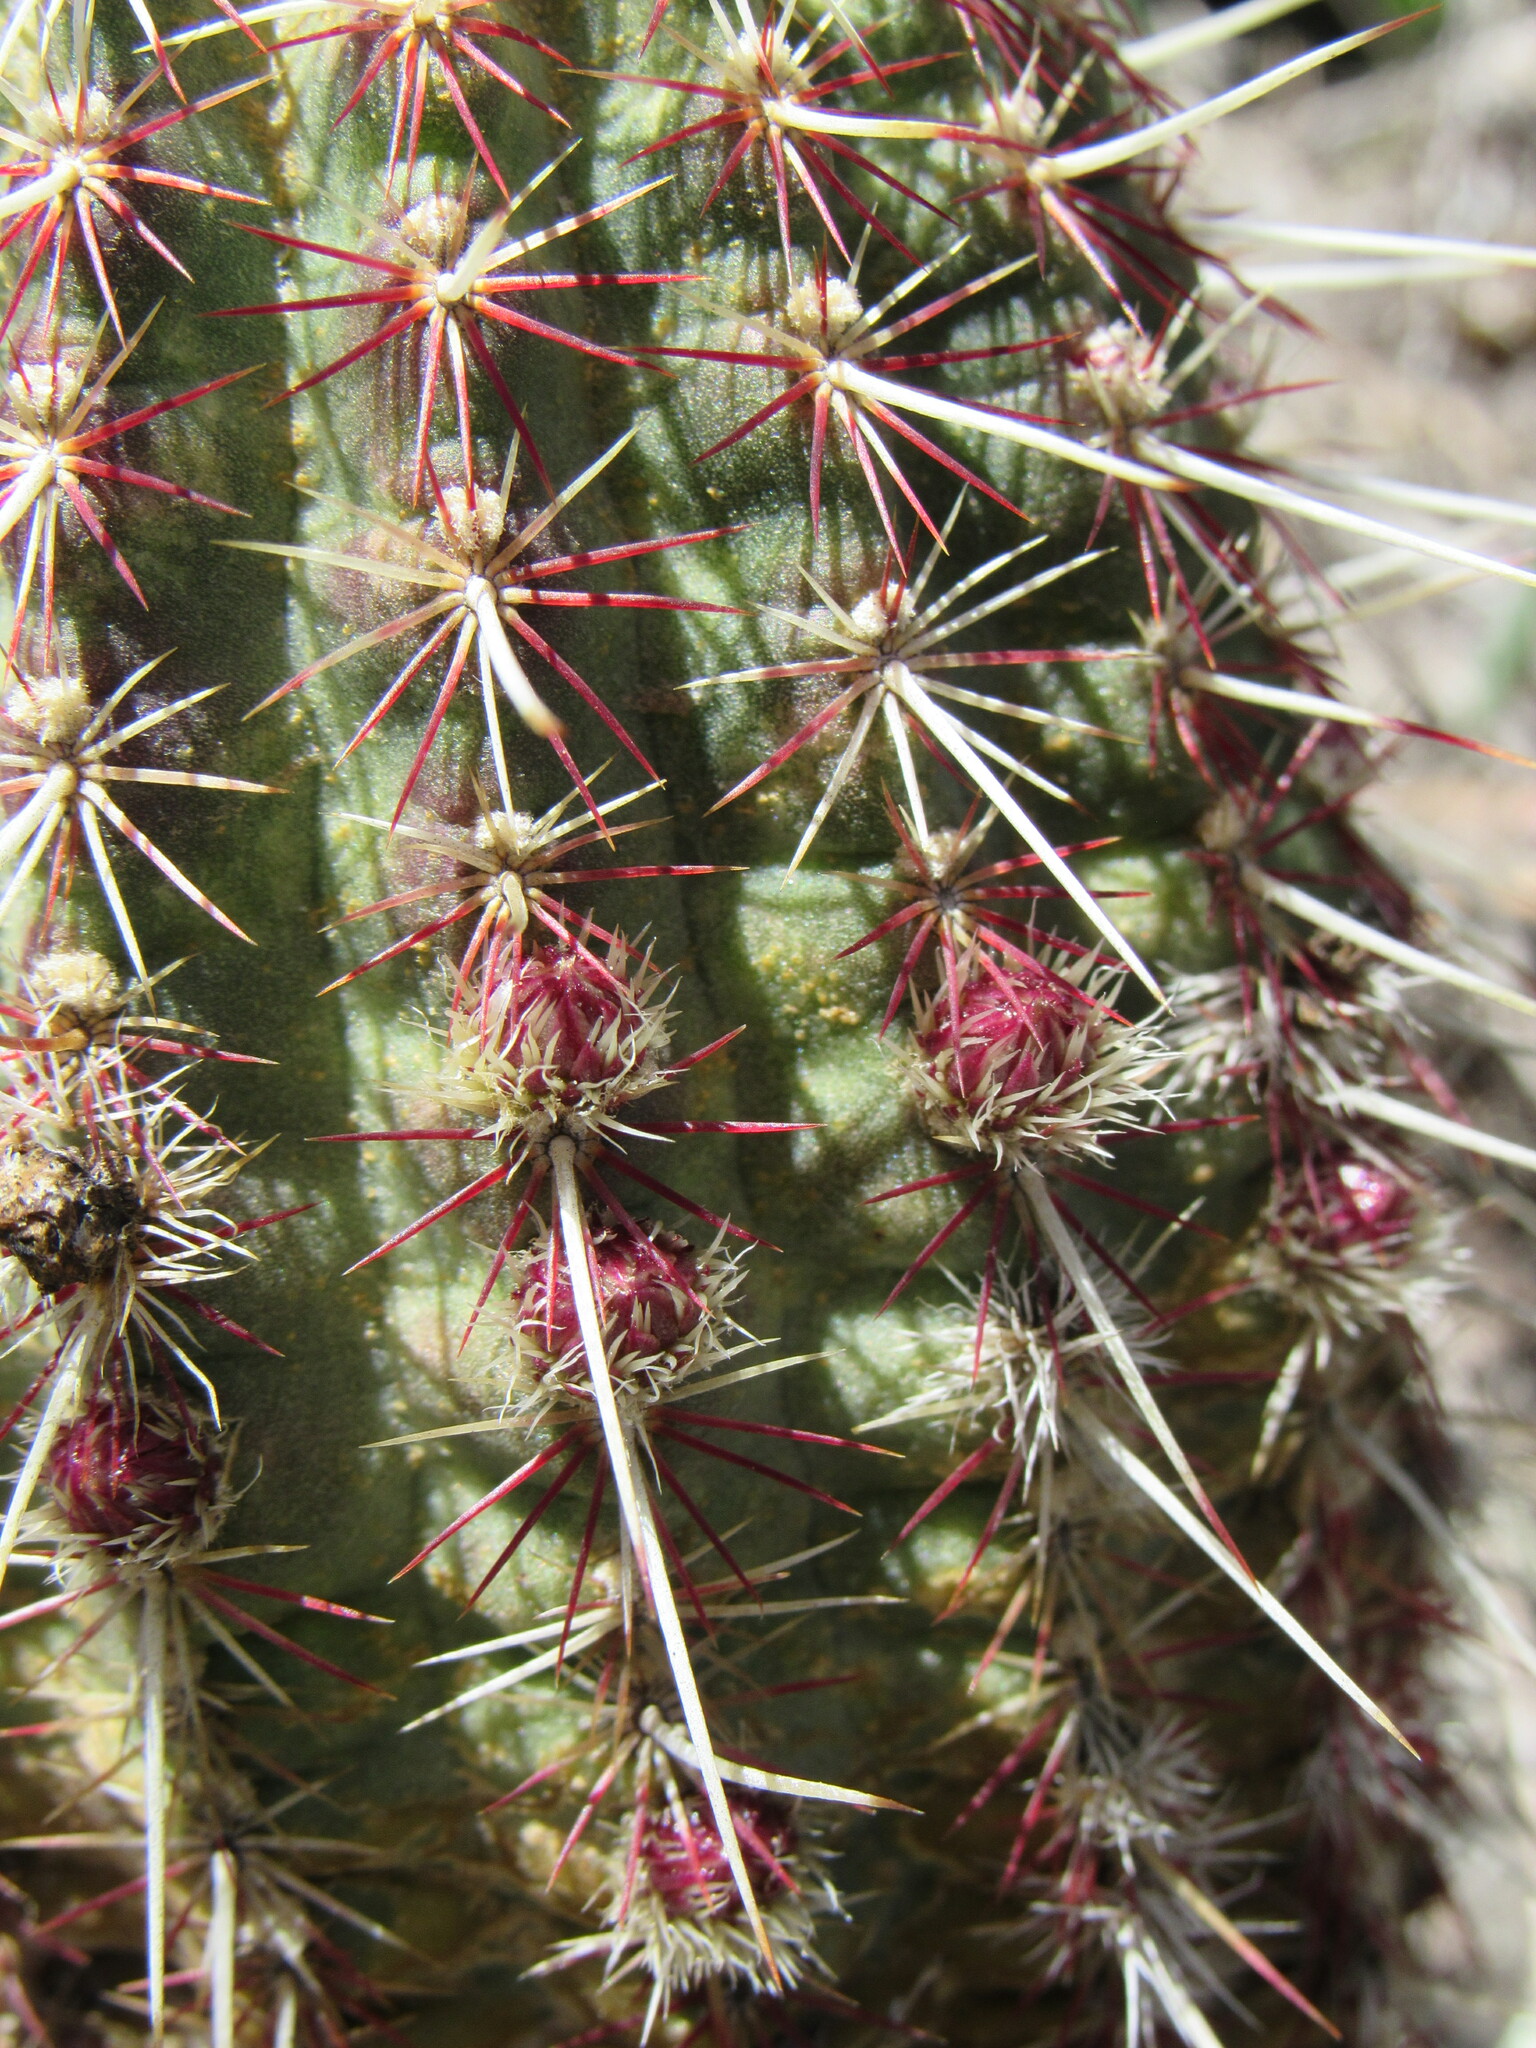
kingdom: Plantae
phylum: Tracheophyta
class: Magnoliopsida
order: Caryophyllales
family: Cactaceae
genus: Echinocereus
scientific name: Echinocereus viridiflorus
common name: Nylon hedgehog cactus
